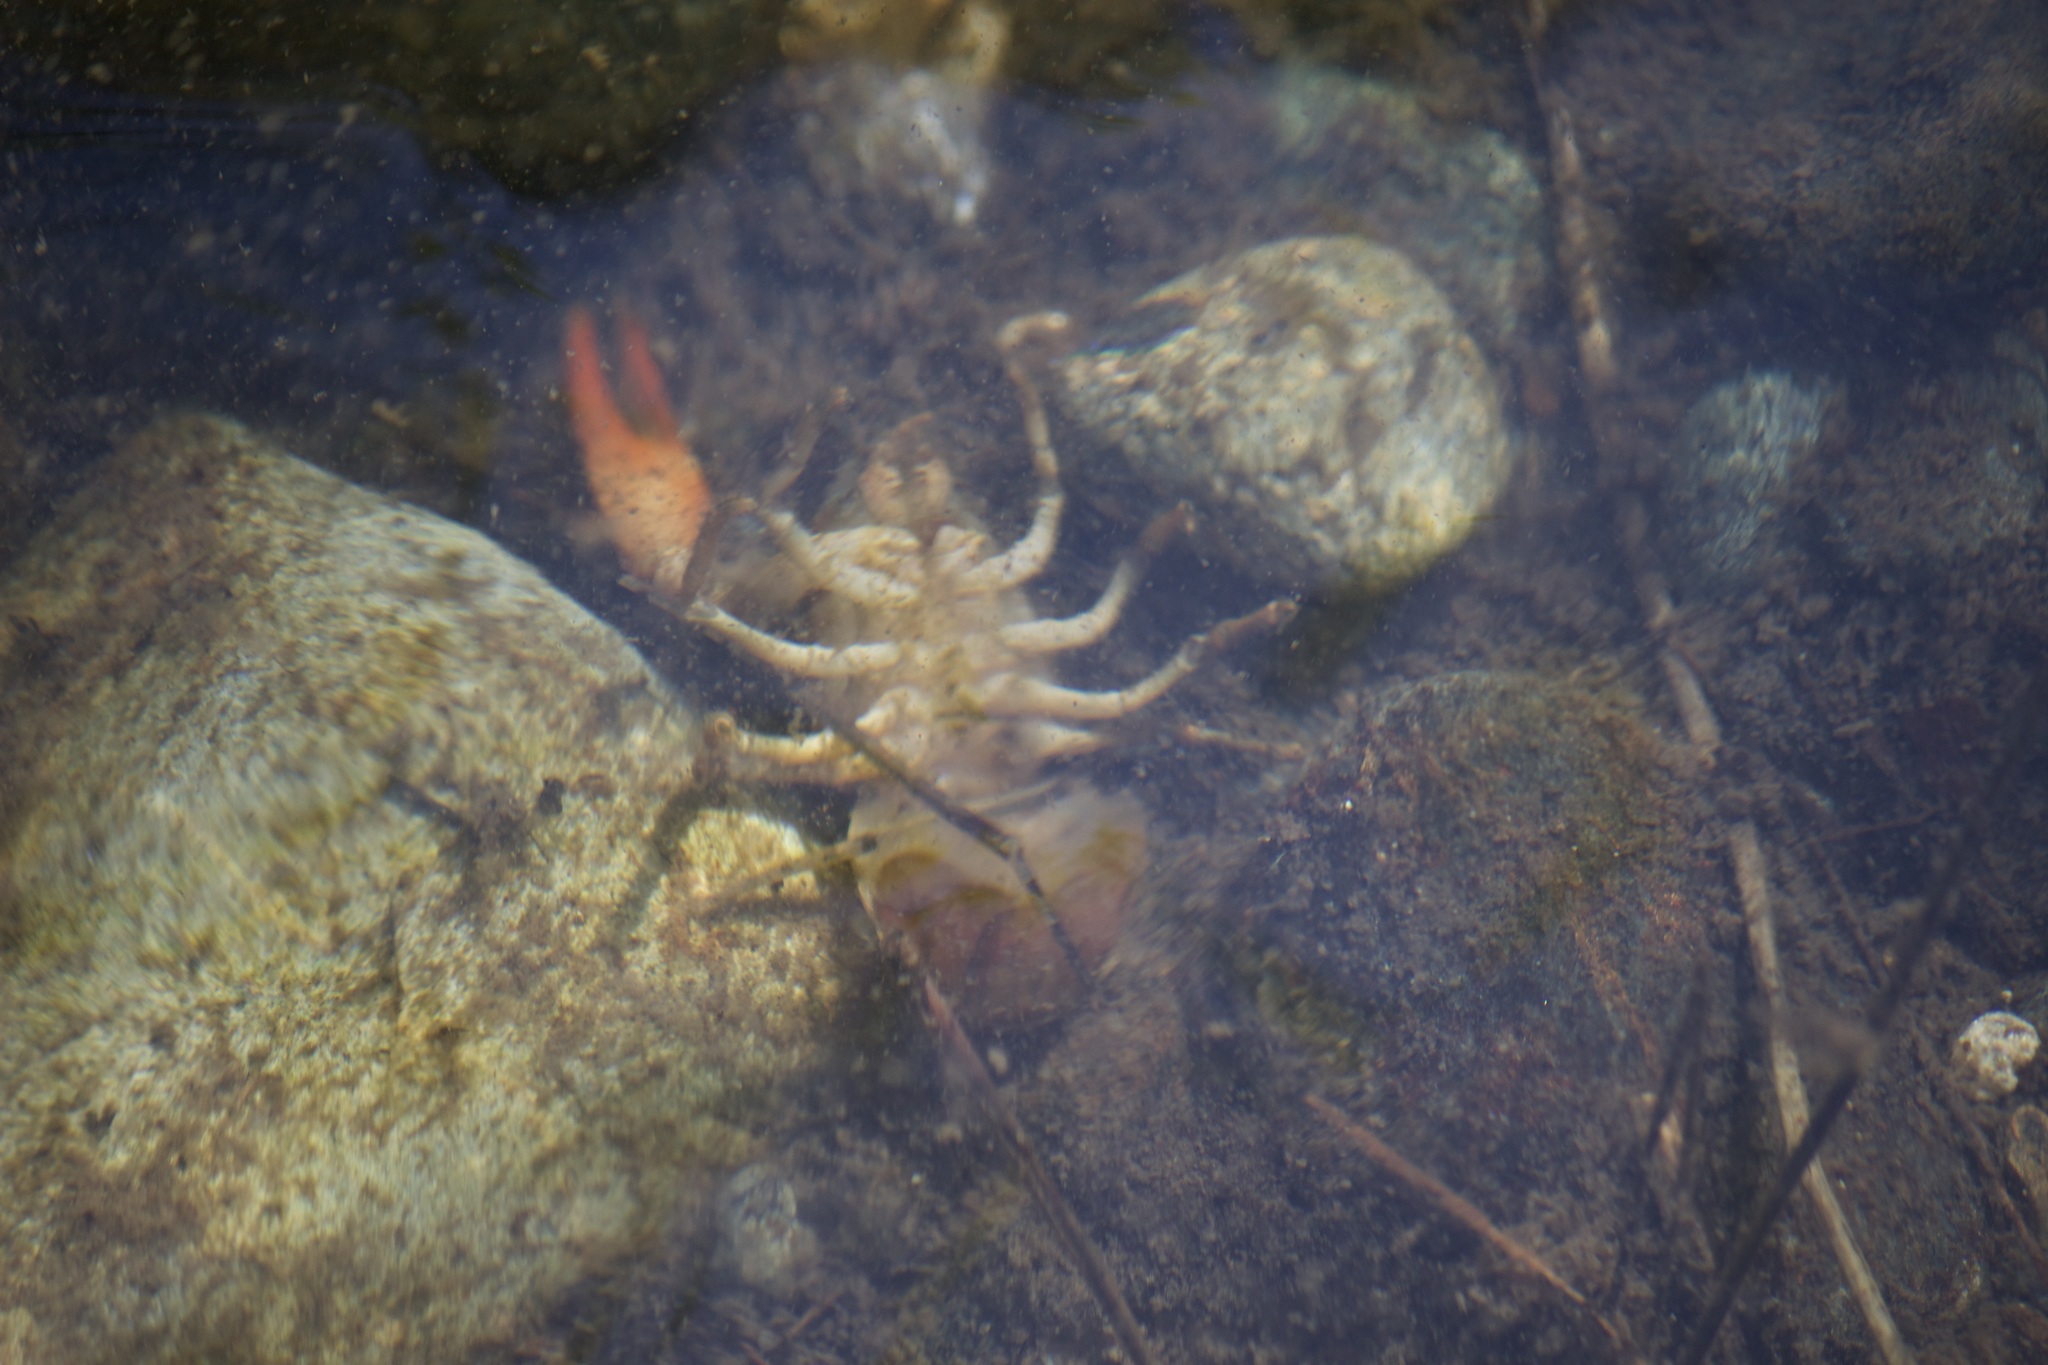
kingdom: Animalia
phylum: Arthropoda
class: Malacostraca
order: Decapoda
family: Astacidae
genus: Pacifastacus
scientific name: Pacifastacus leniusculus
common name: Signal crayfish
